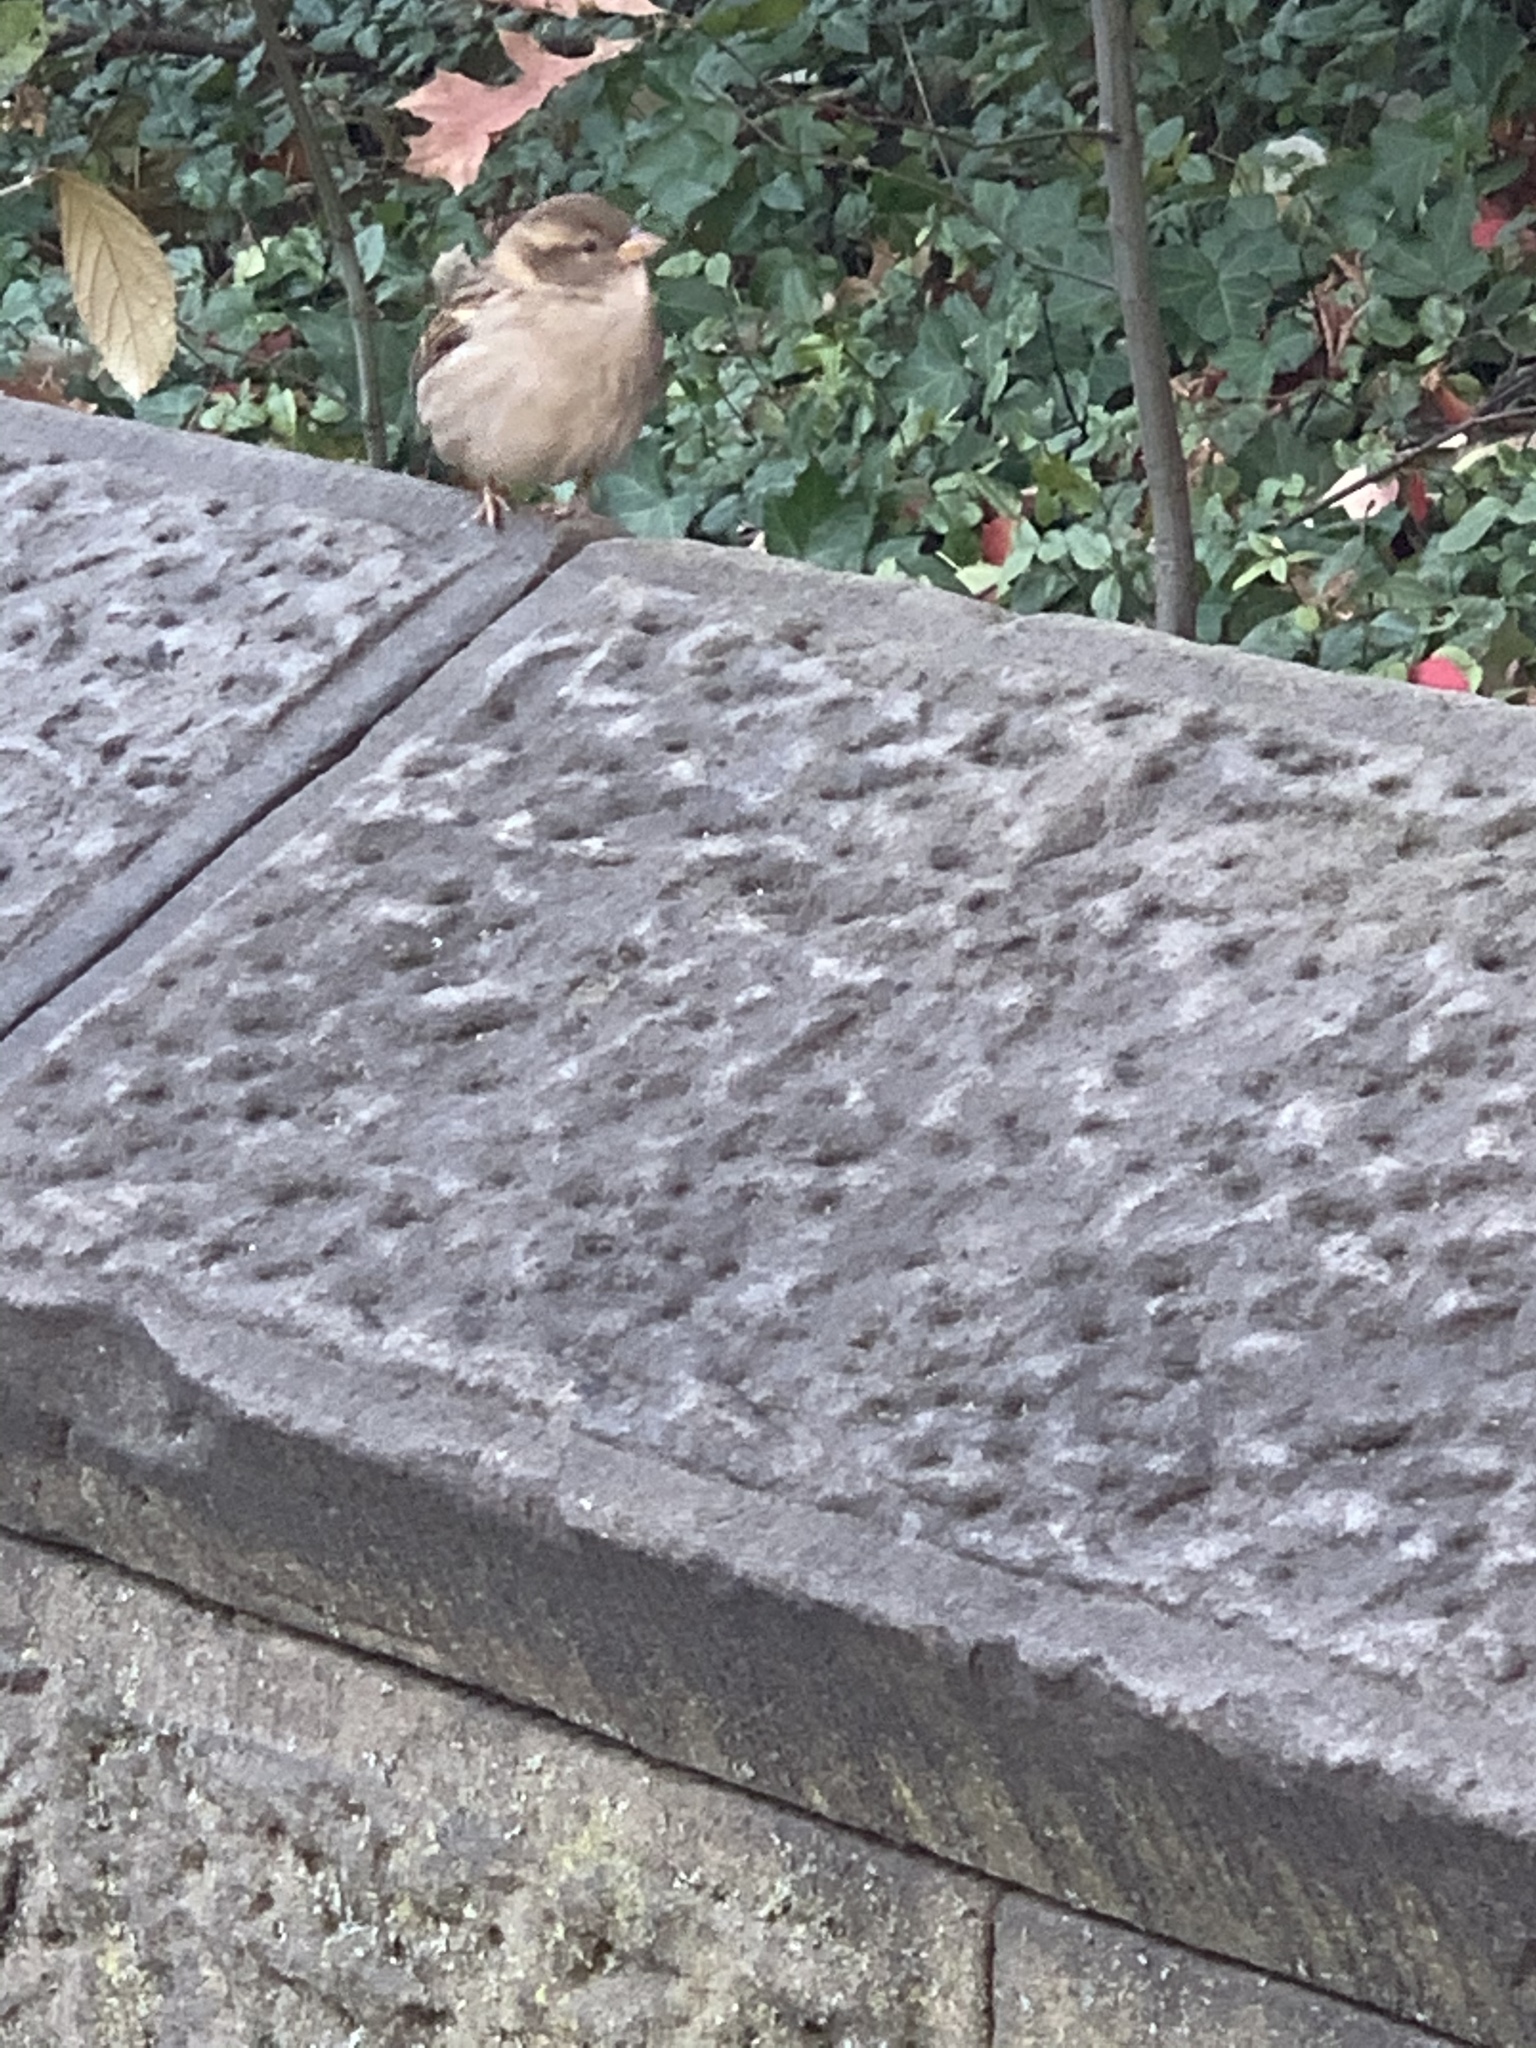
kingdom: Animalia
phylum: Chordata
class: Aves
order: Passeriformes
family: Passeridae
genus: Passer
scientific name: Passer domesticus
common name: House sparrow
